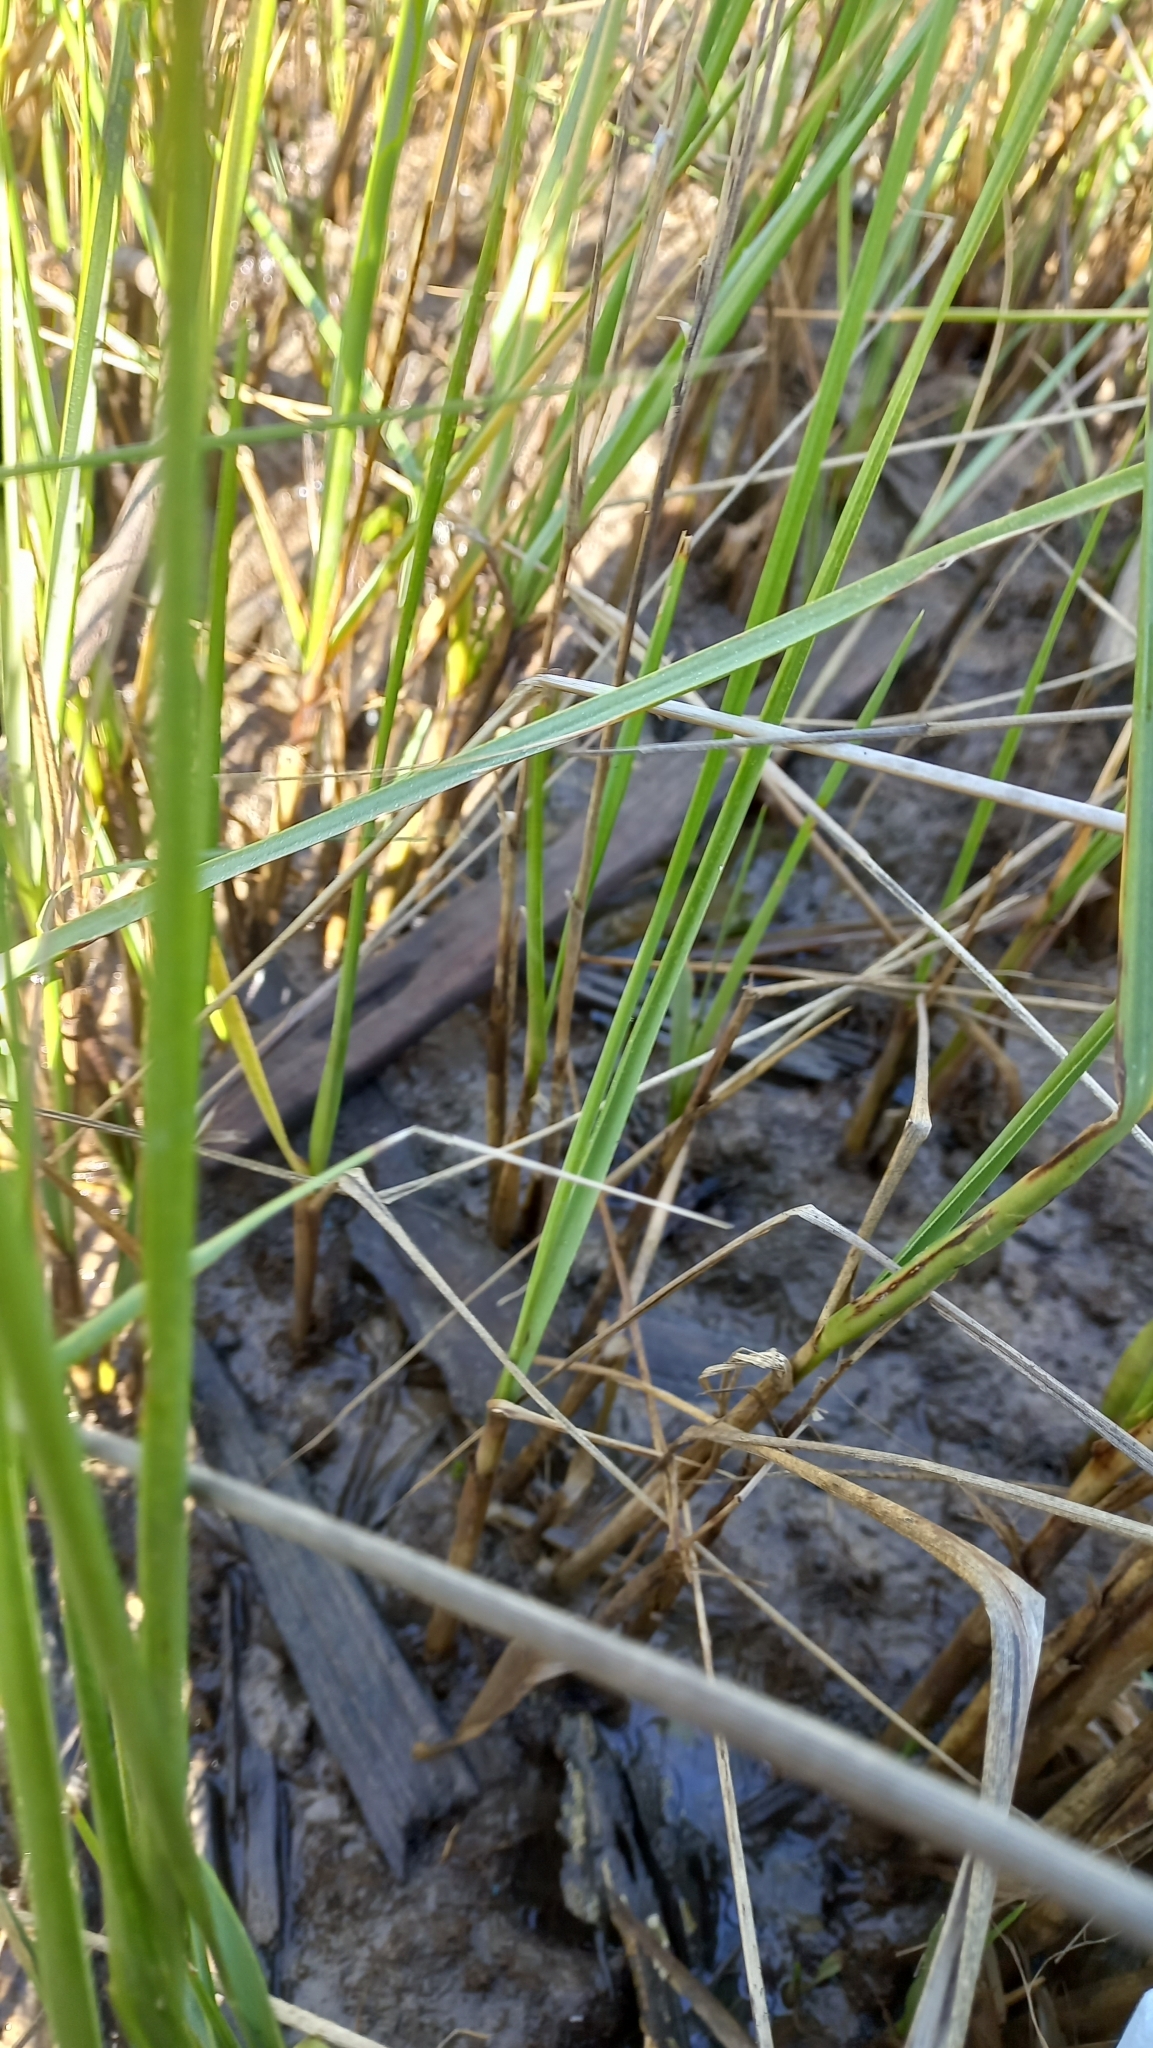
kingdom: Plantae
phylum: Tracheophyta
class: Liliopsida
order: Poales
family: Poaceae
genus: Sporobolus
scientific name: Sporobolus alterniflorus
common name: Atlantic cordgrass
